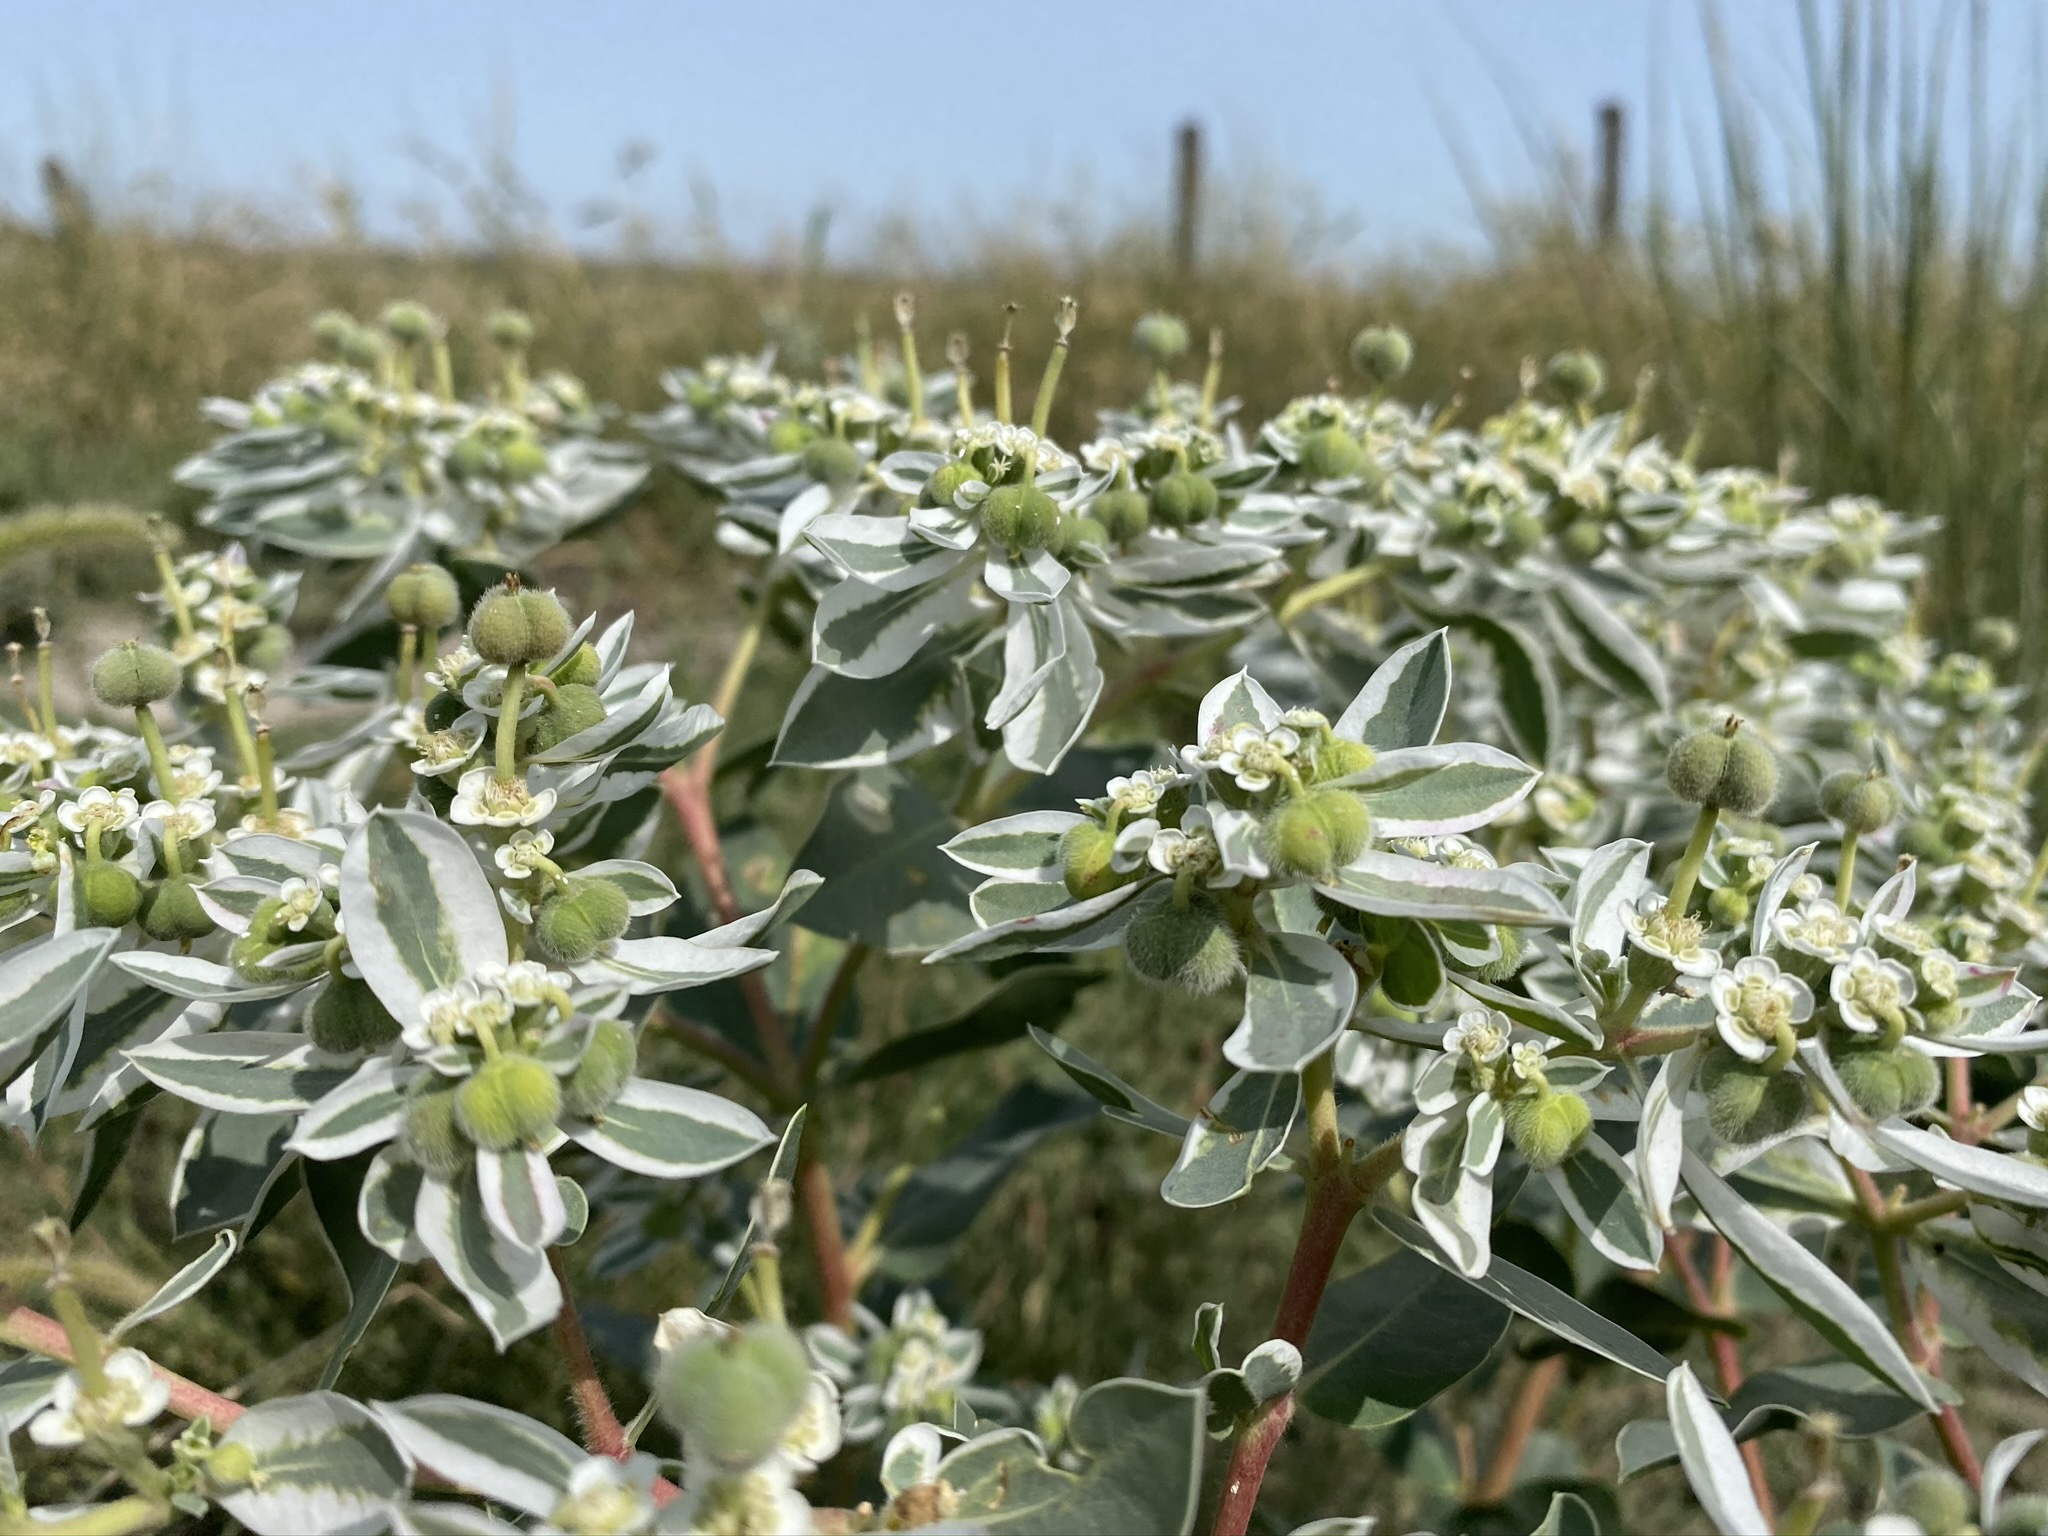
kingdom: Plantae
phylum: Tracheophyta
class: Magnoliopsida
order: Malpighiales
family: Euphorbiaceae
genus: Euphorbia
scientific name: Euphorbia marginata
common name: Ghostweed
